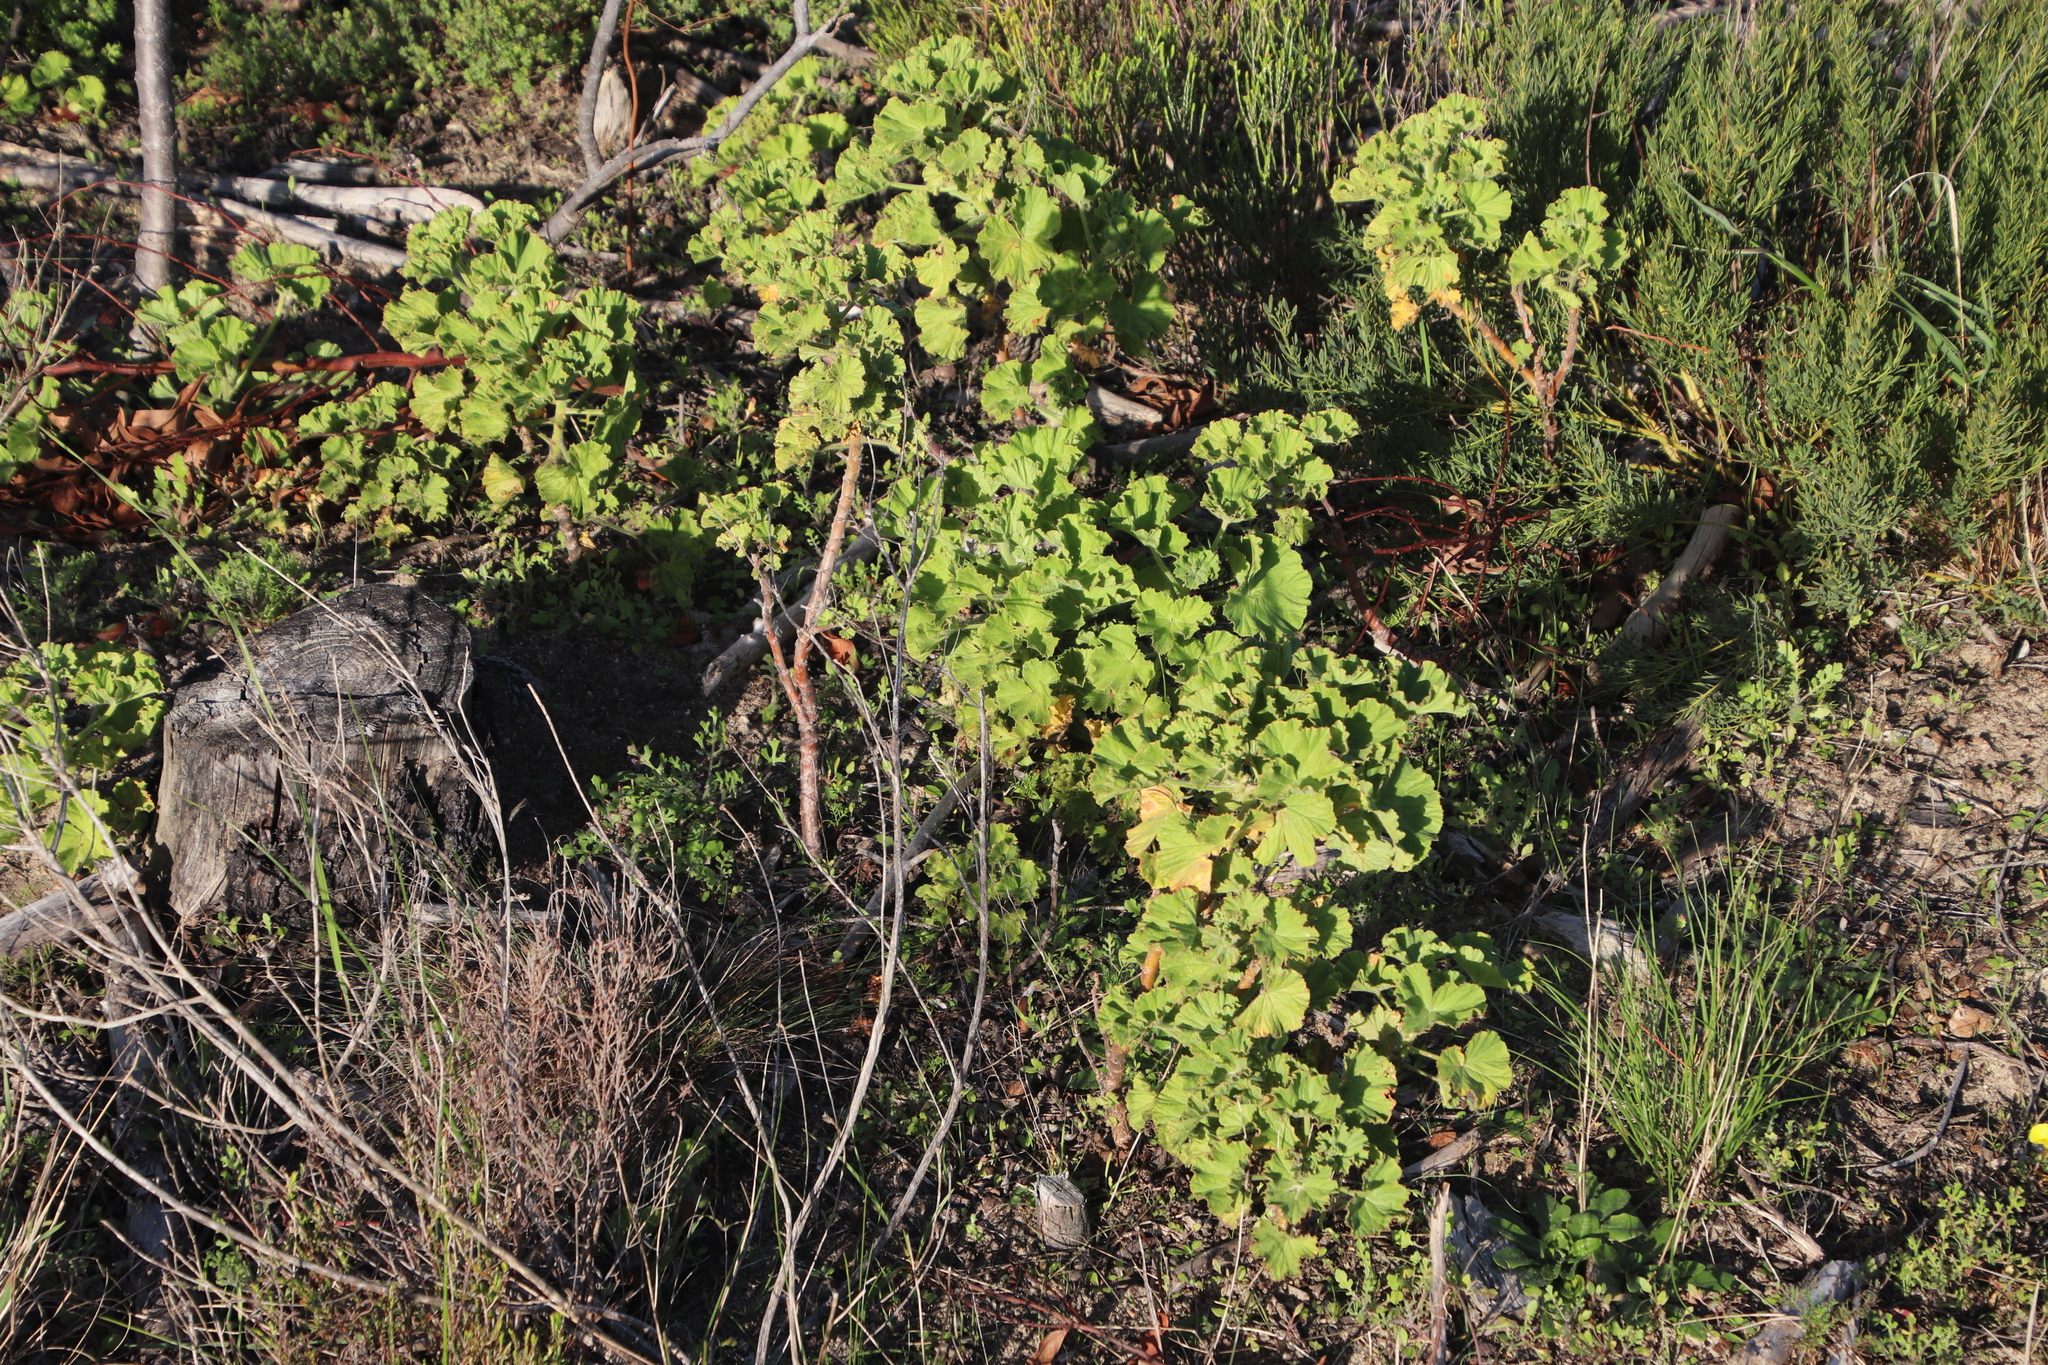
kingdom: Plantae
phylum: Tracheophyta
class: Magnoliopsida
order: Geraniales
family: Geraniaceae
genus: Pelargonium
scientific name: Pelargonium cucullatum
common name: Tree pelargonium
